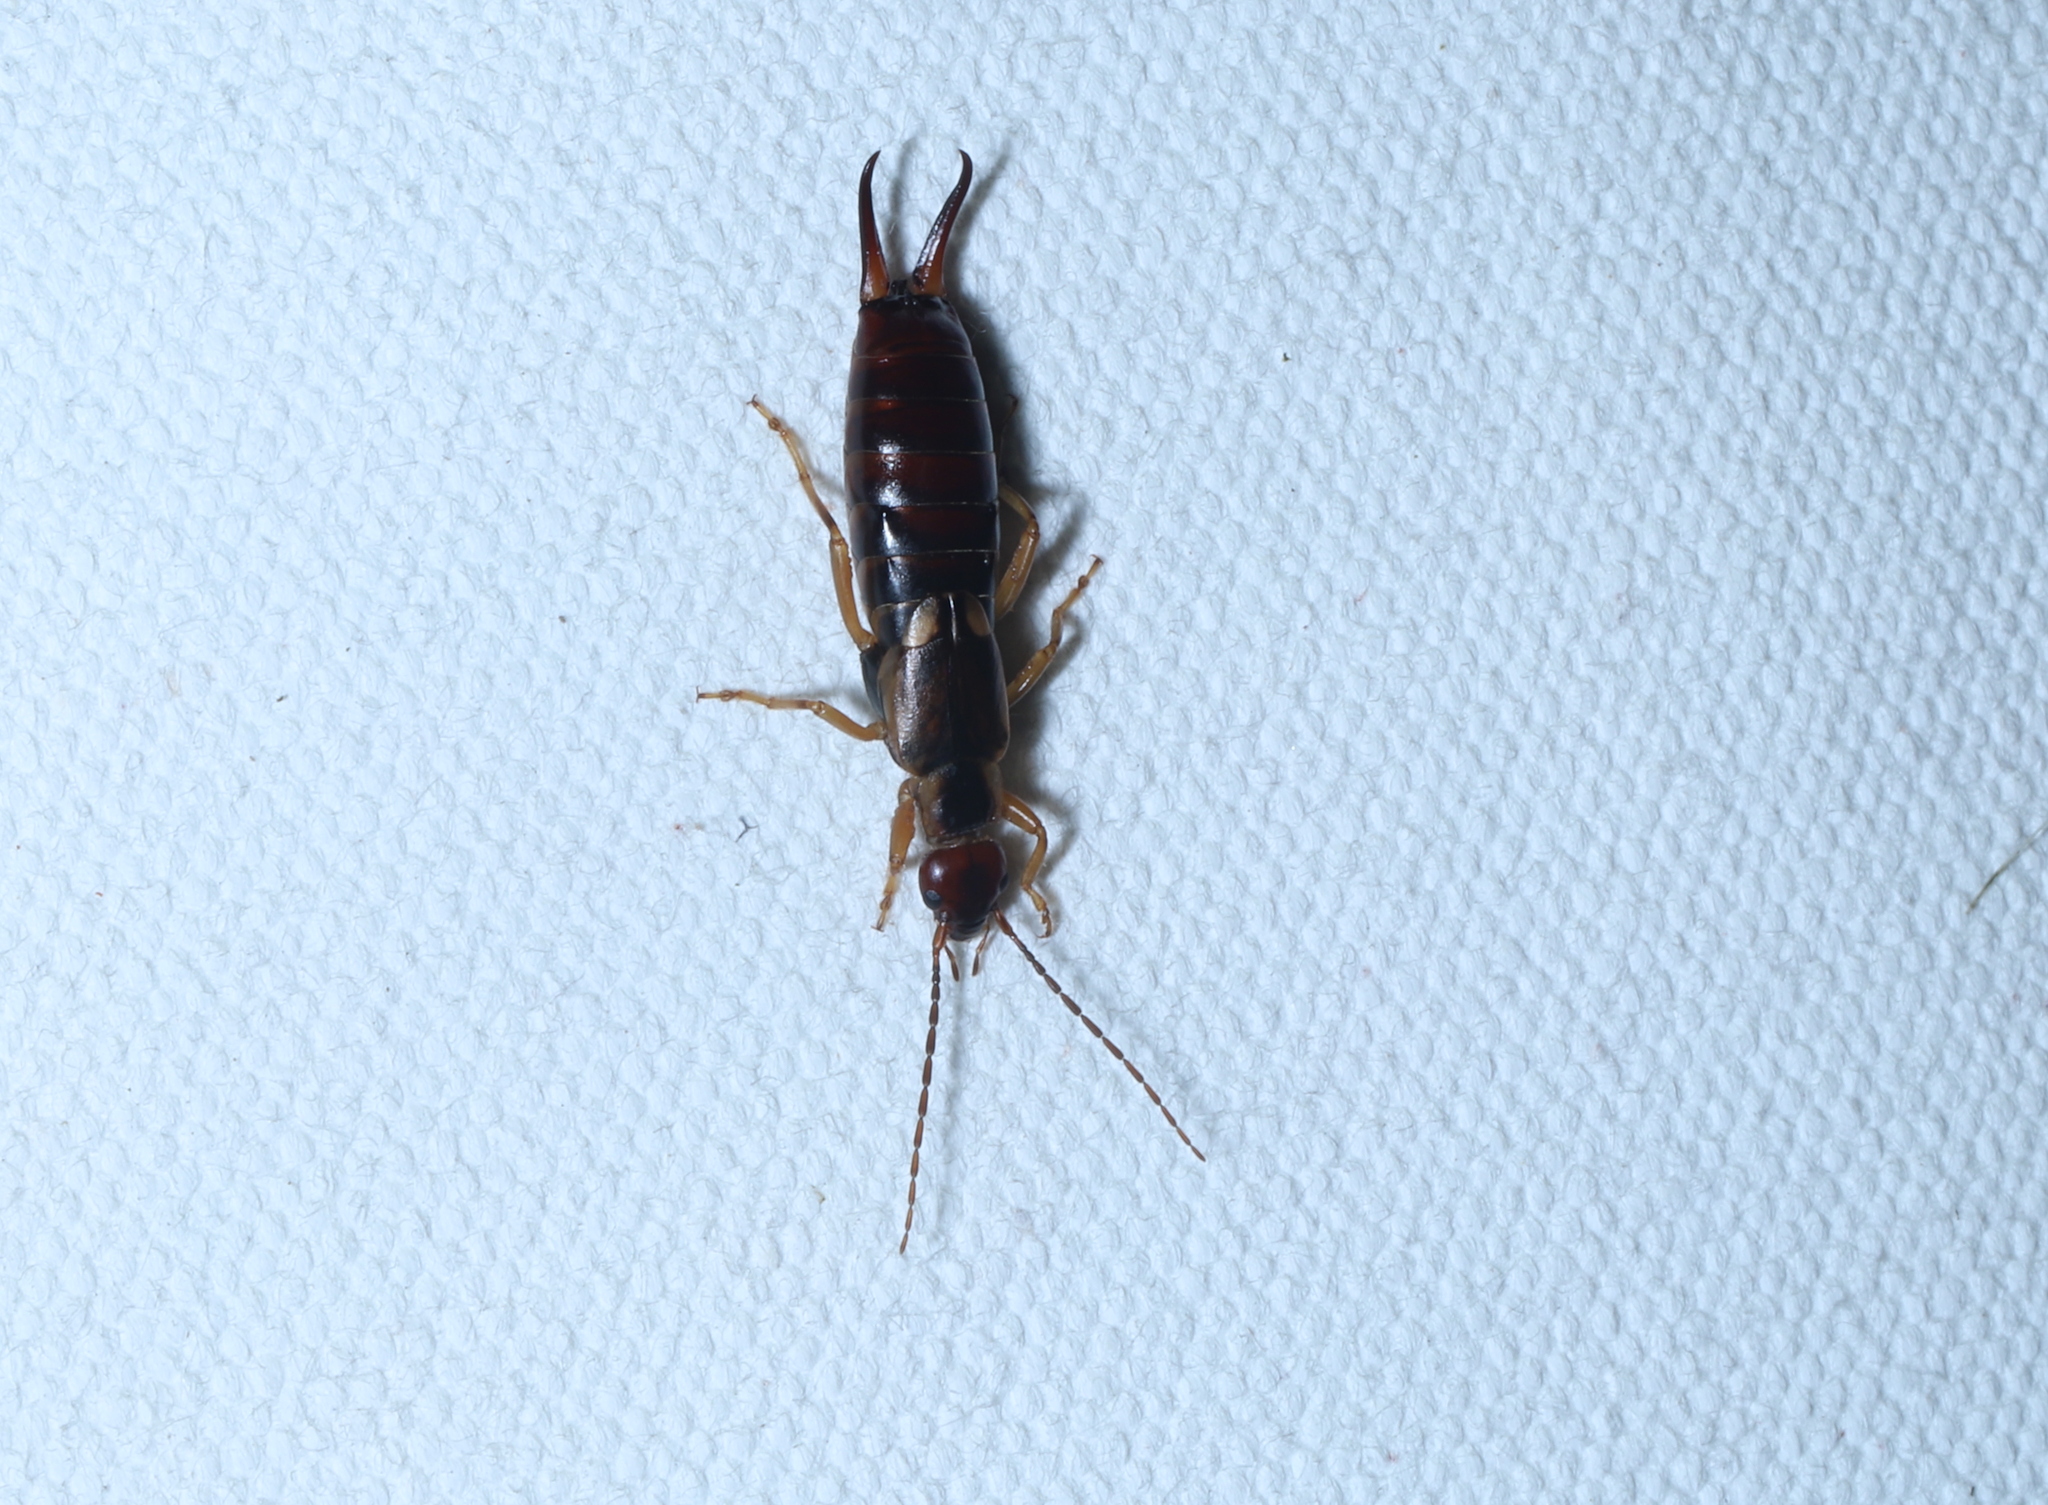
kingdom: Animalia
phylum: Arthropoda
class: Insecta
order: Dermaptera
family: Forficulidae
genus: Forficula
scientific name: Forficula
